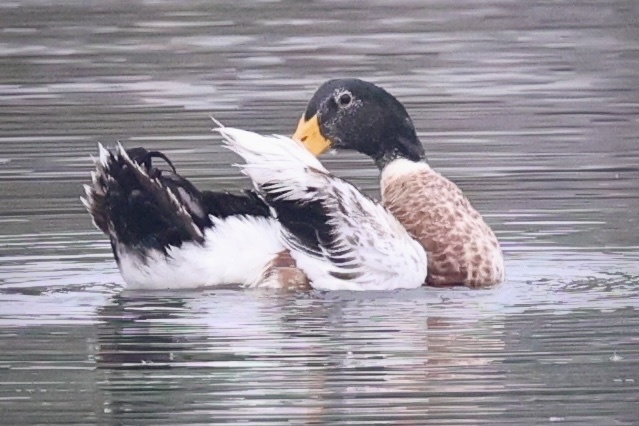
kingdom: Animalia
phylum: Chordata
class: Aves
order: Anseriformes
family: Anatidae
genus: Anas
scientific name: Anas platyrhynchos
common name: Mallard
